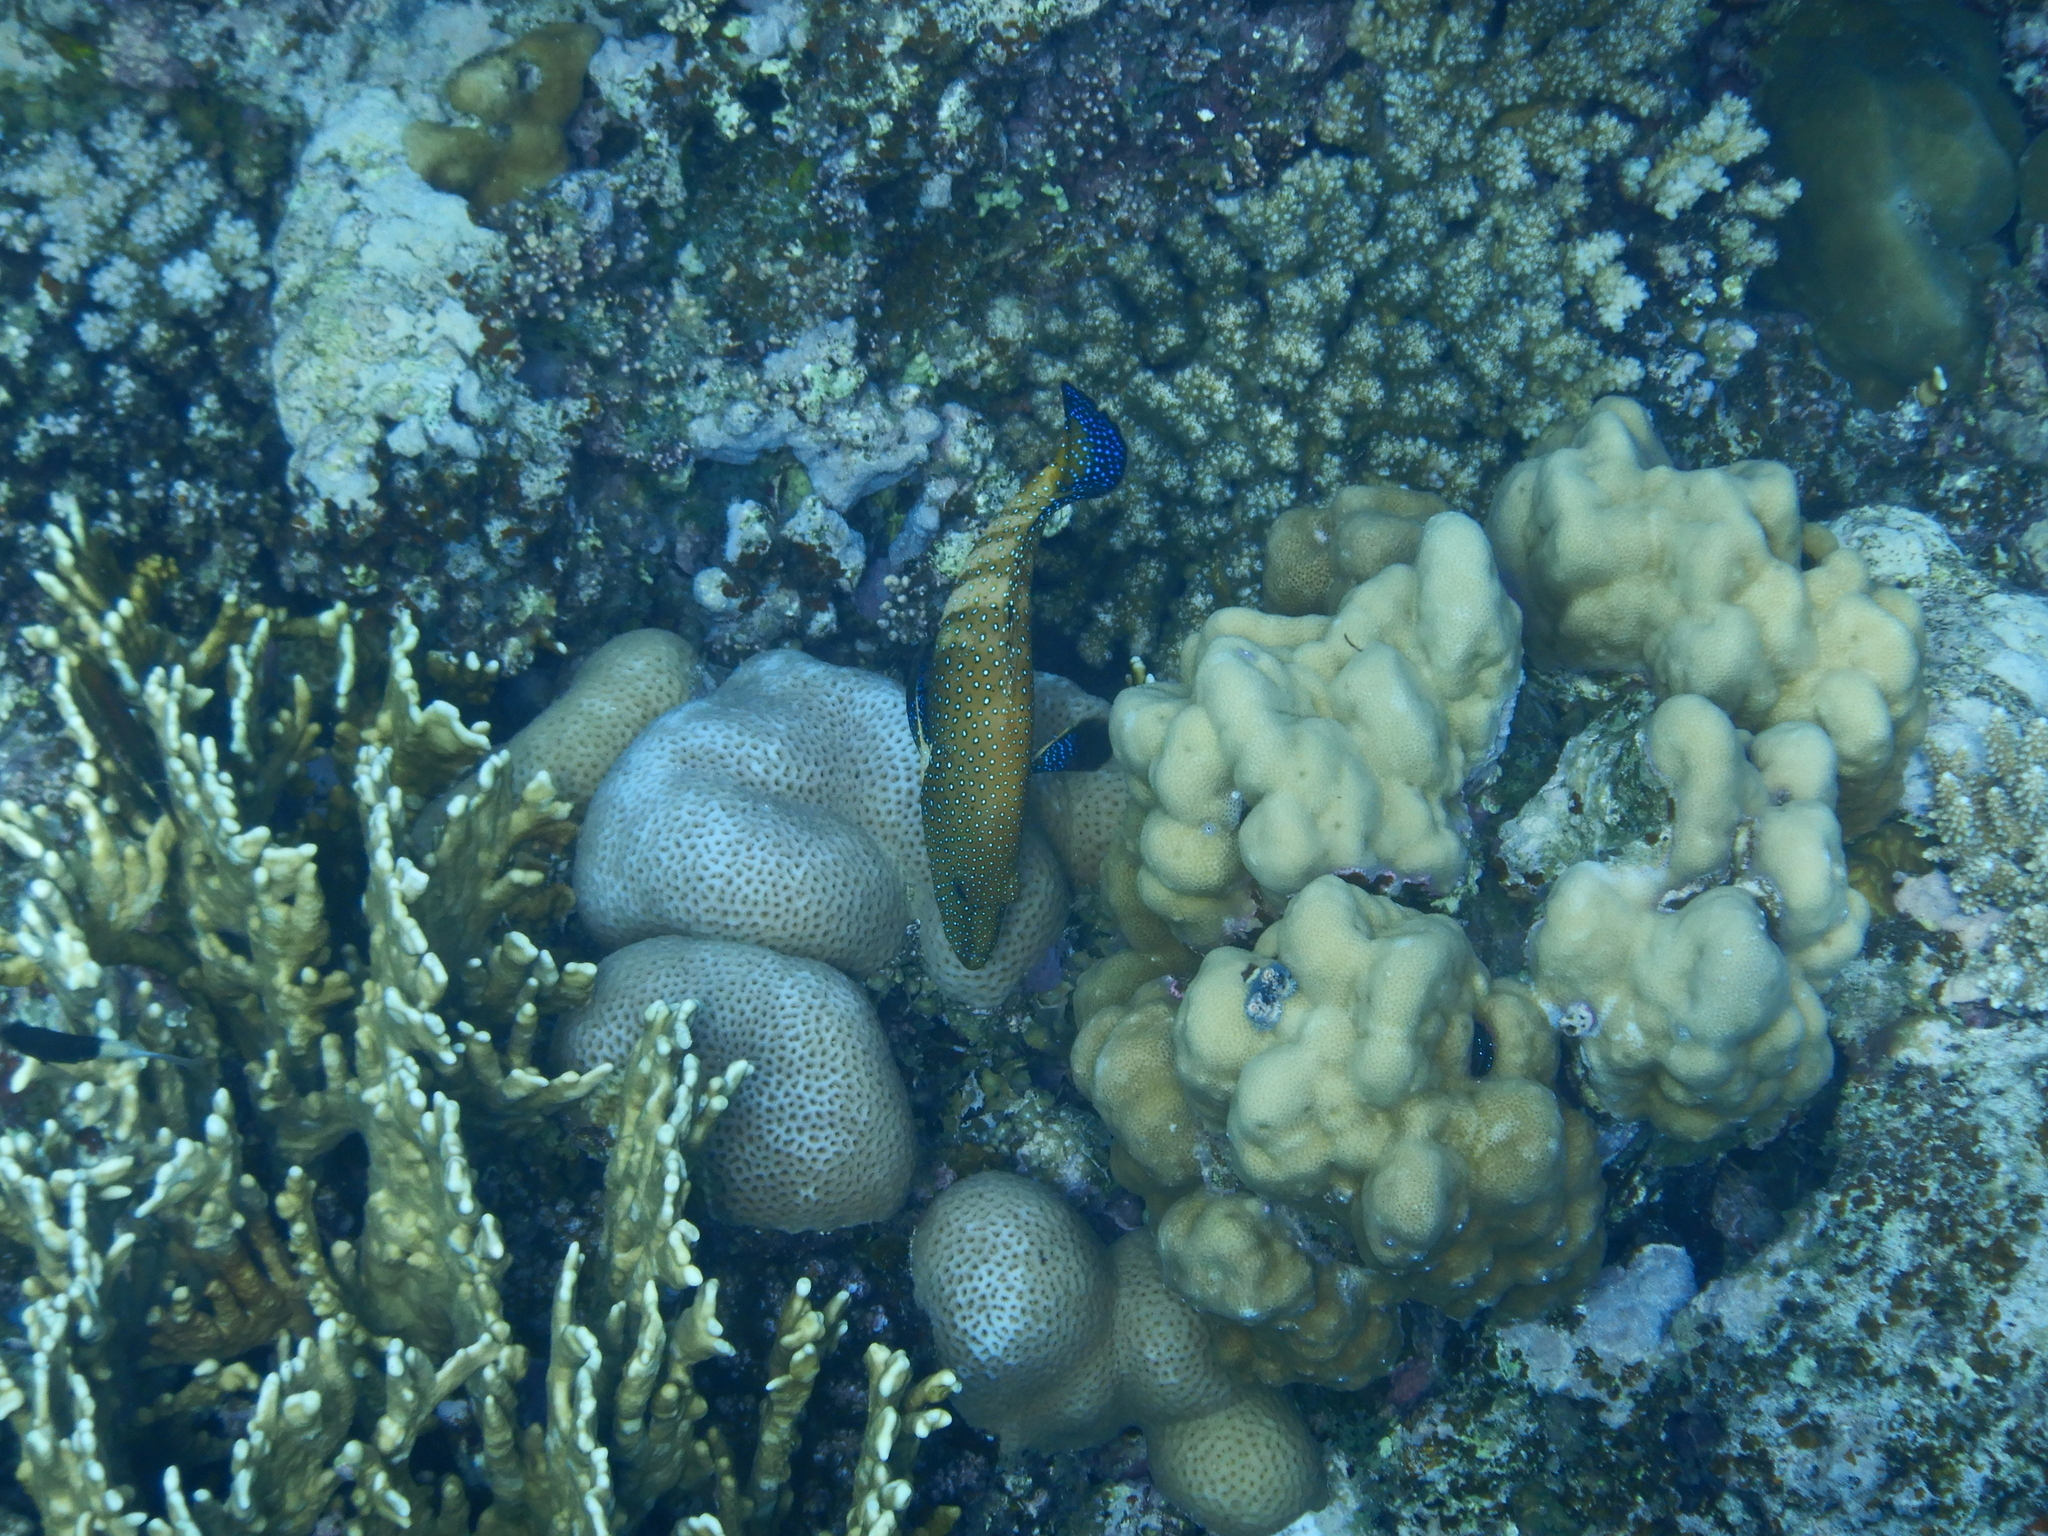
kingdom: Animalia
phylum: Chordata
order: Perciformes
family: Serranidae
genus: Cephalopholis
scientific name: Cephalopholis argus
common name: Peacock grouper
